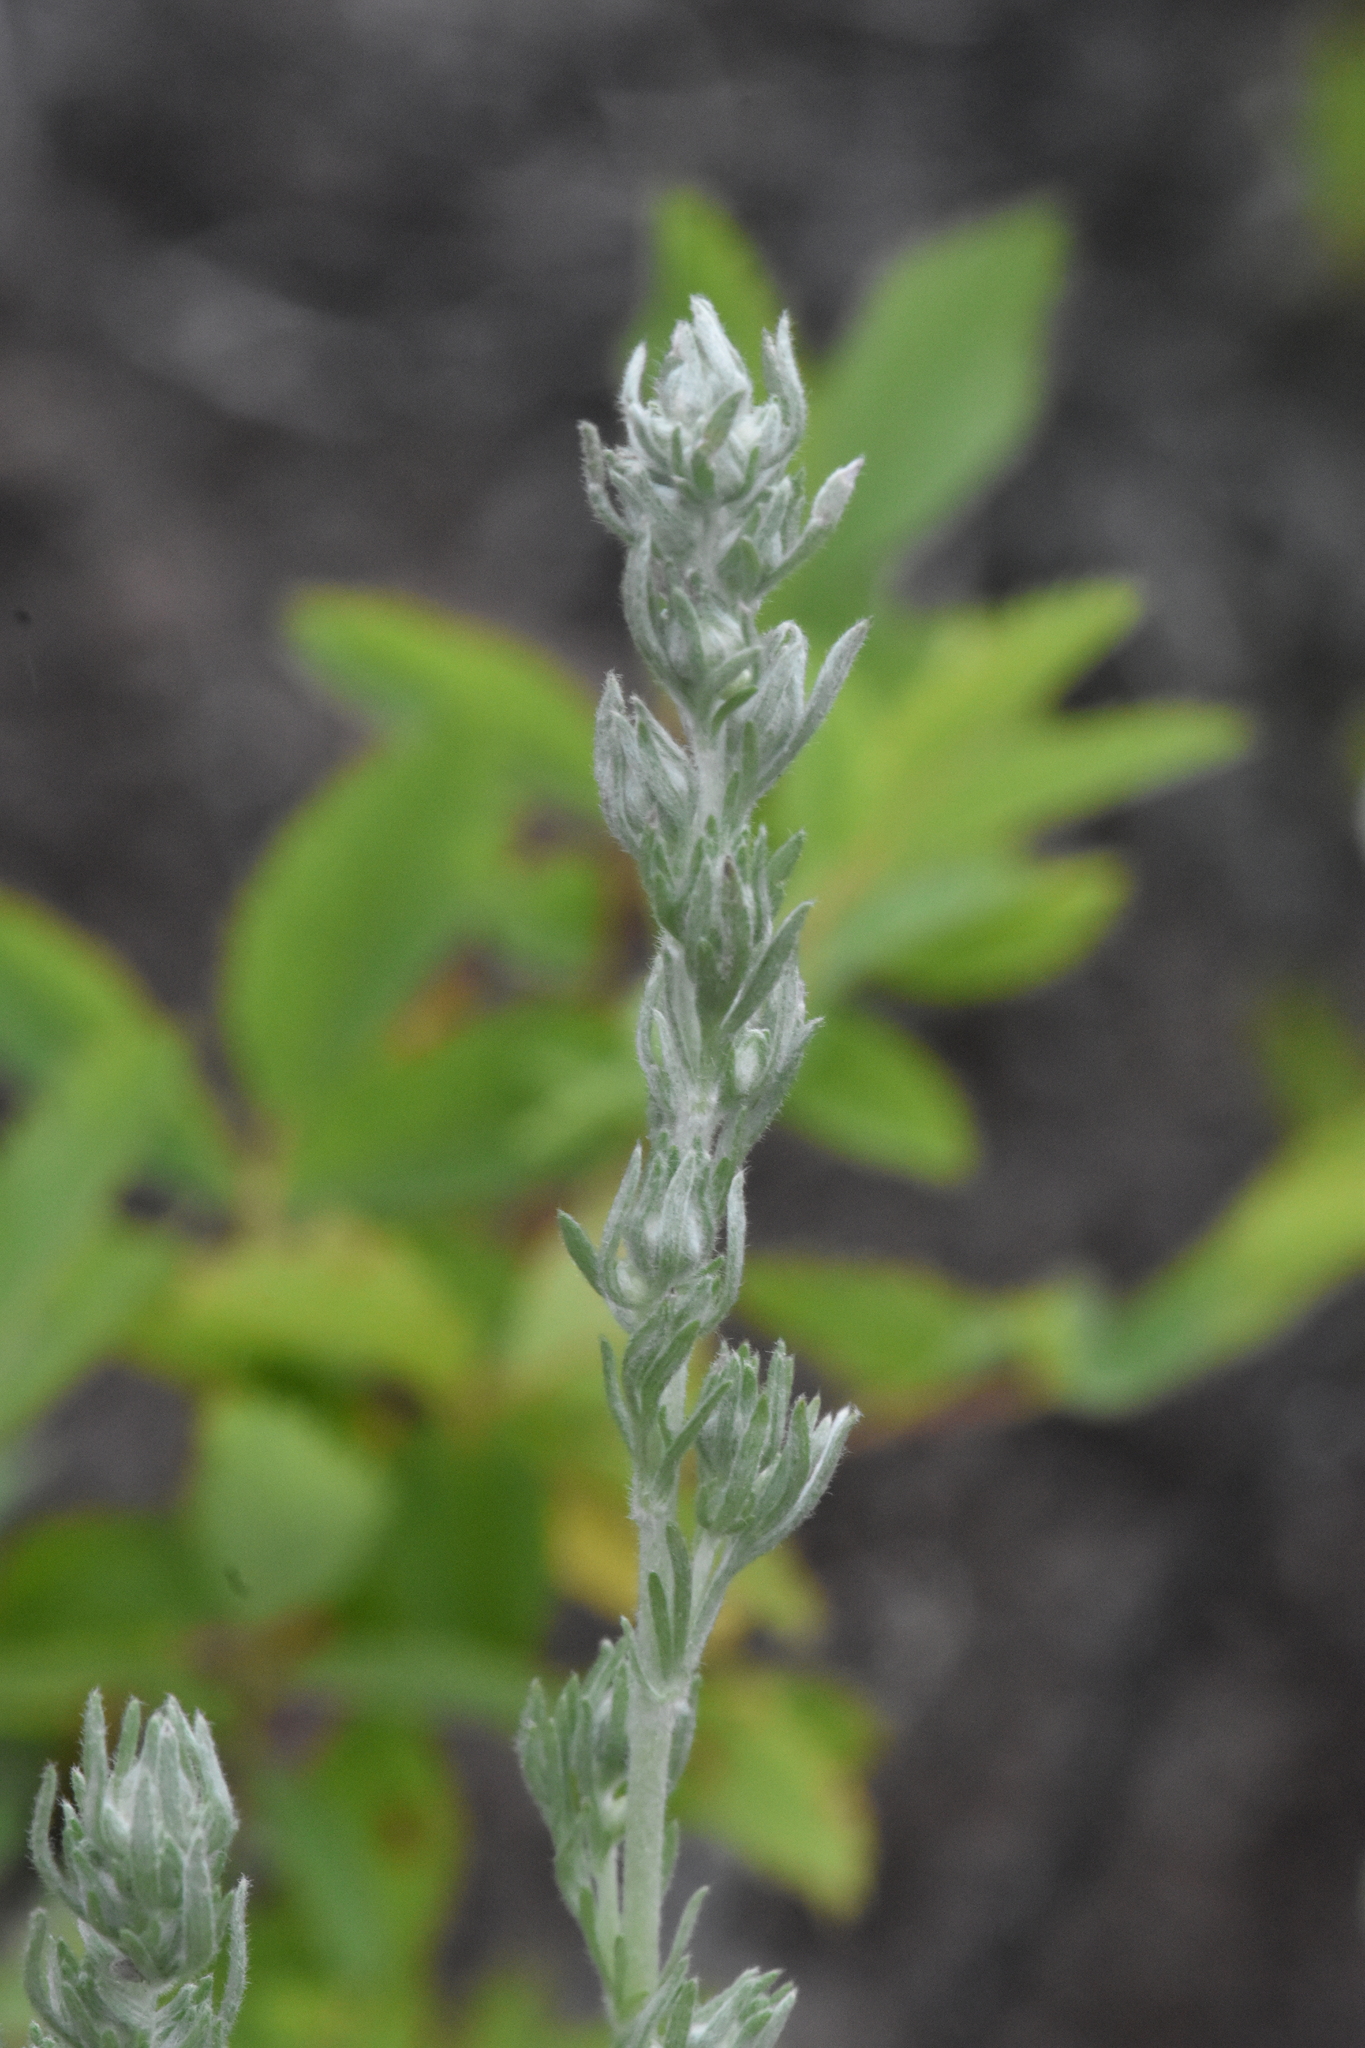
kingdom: Plantae
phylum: Tracheophyta
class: Magnoliopsida
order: Asterales
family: Asteraceae
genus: Artemisia
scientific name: Artemisia frigida
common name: Prairie sagewort
